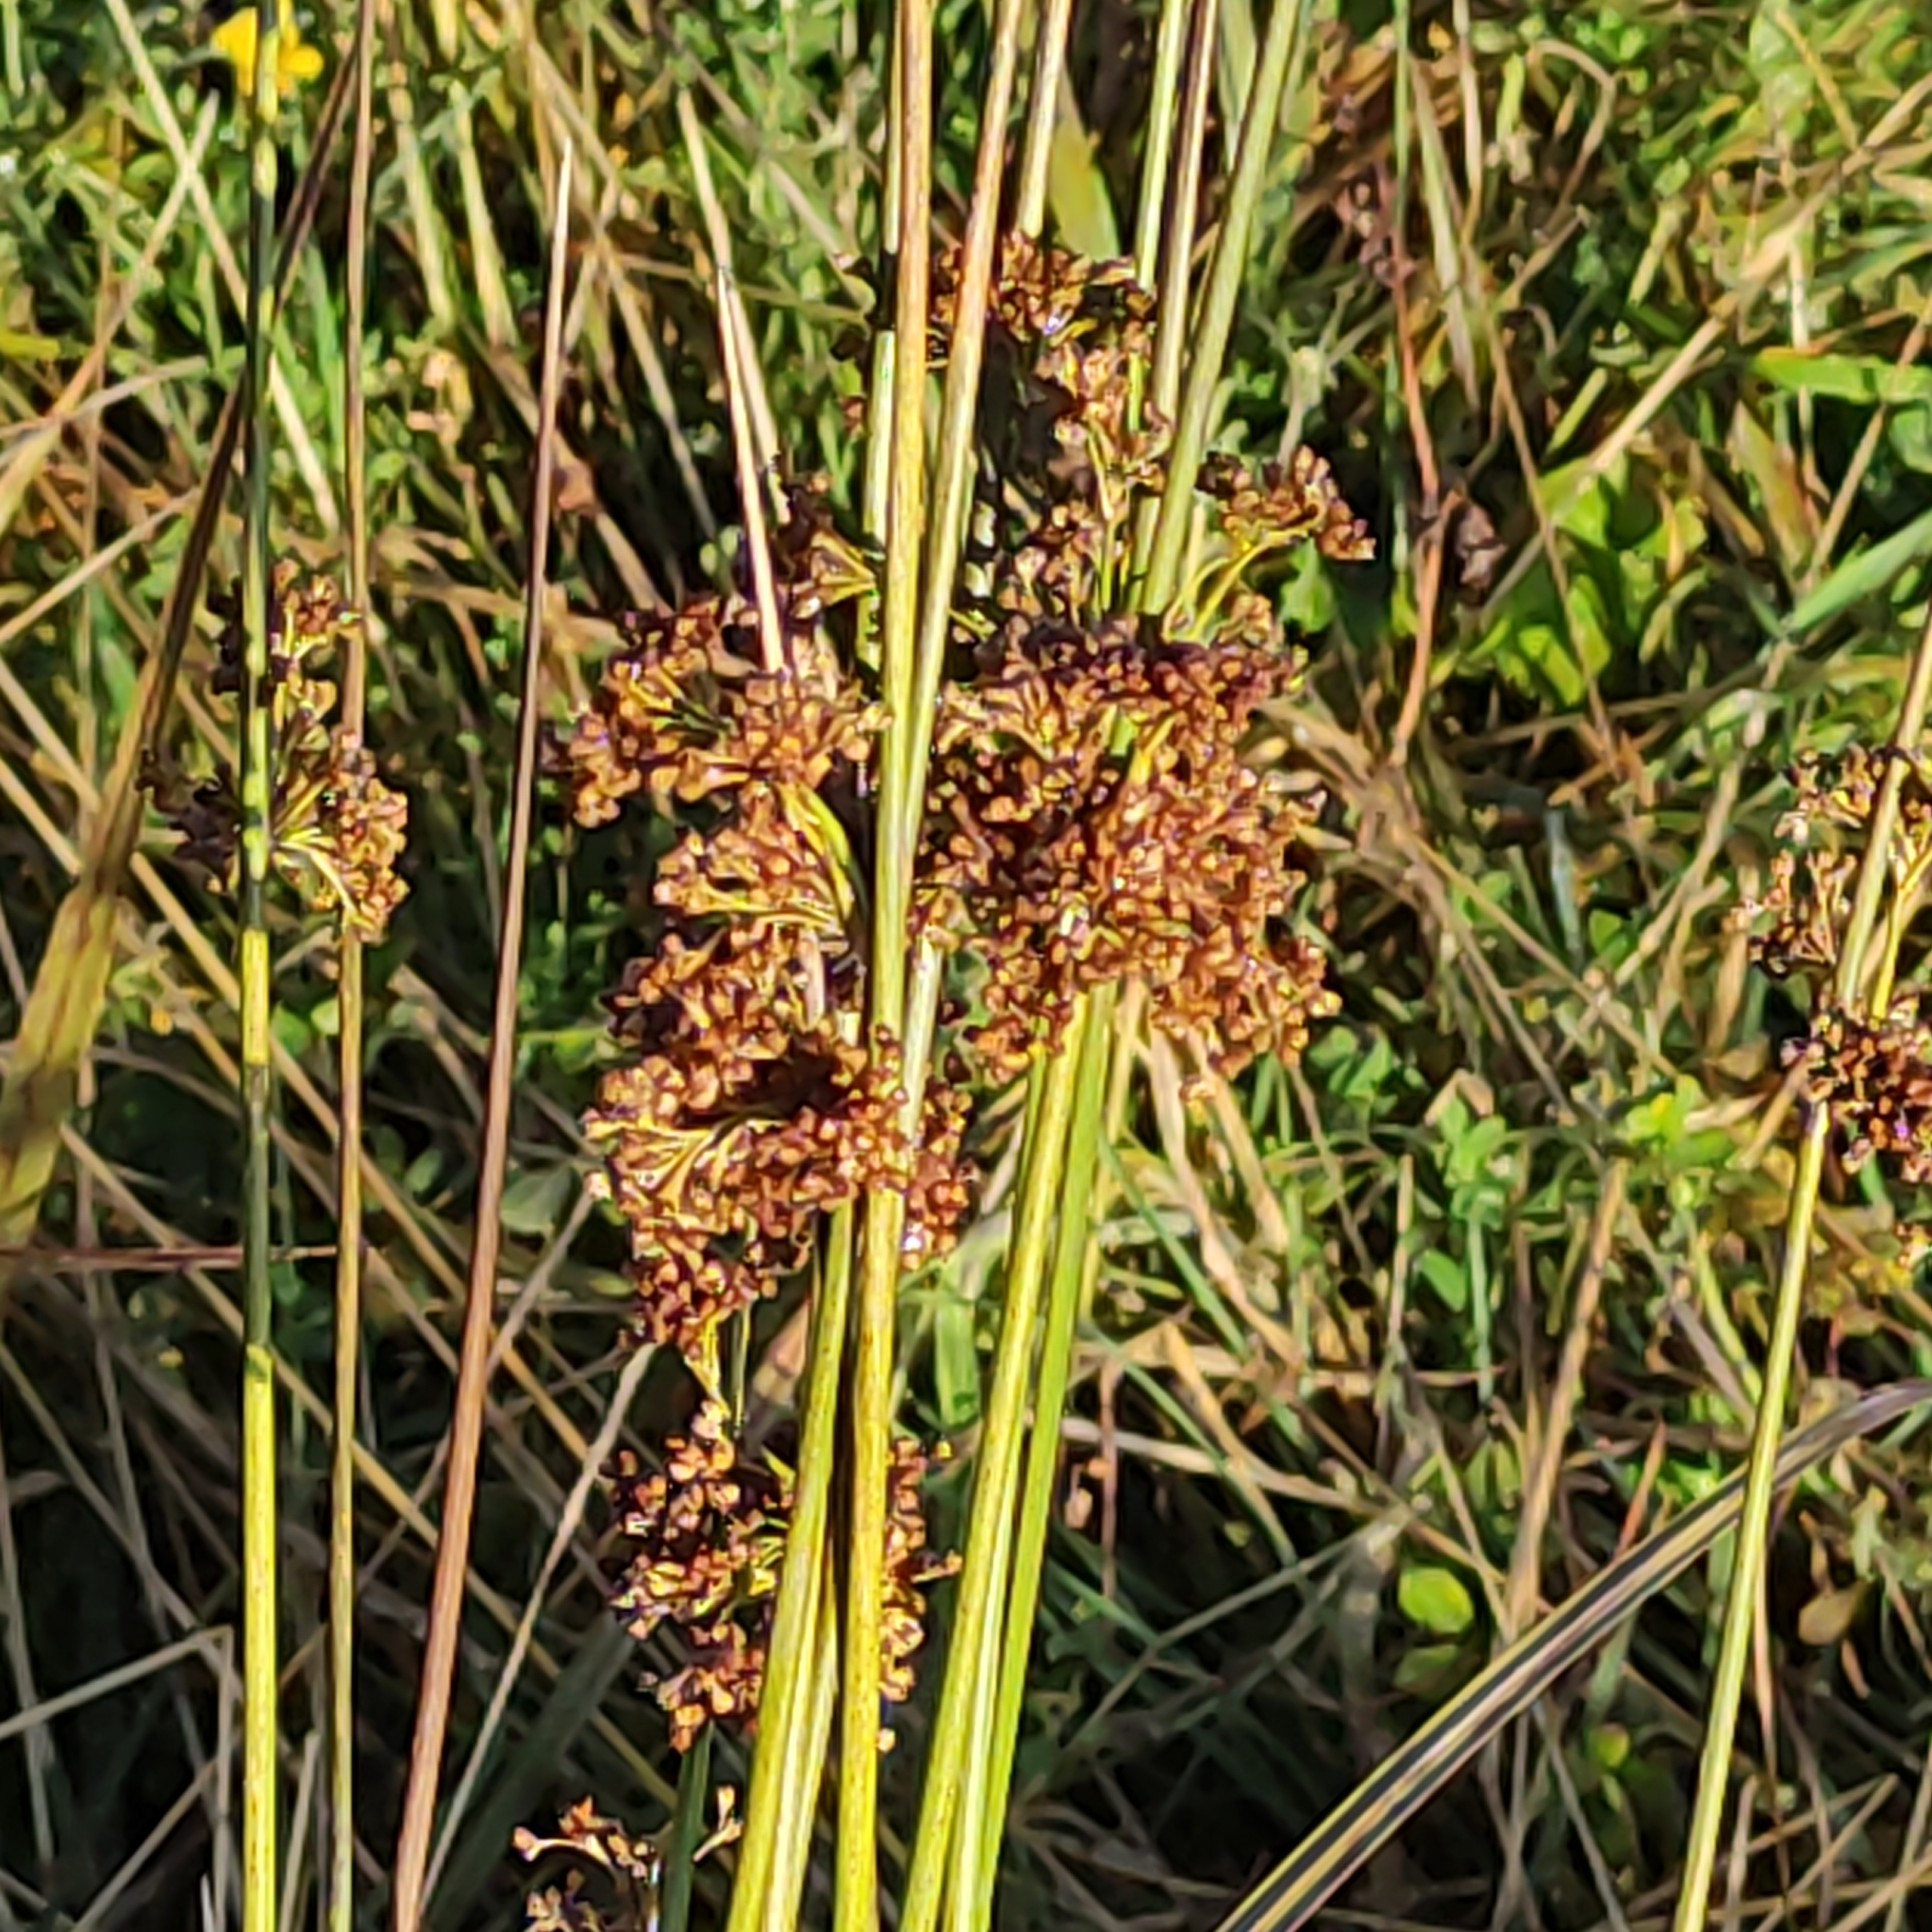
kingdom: Plantae
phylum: Tracheophyta
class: Liliopsida
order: Poales
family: Juncaceae
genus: Juncus
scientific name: Juncus effusus
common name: Soft rush
